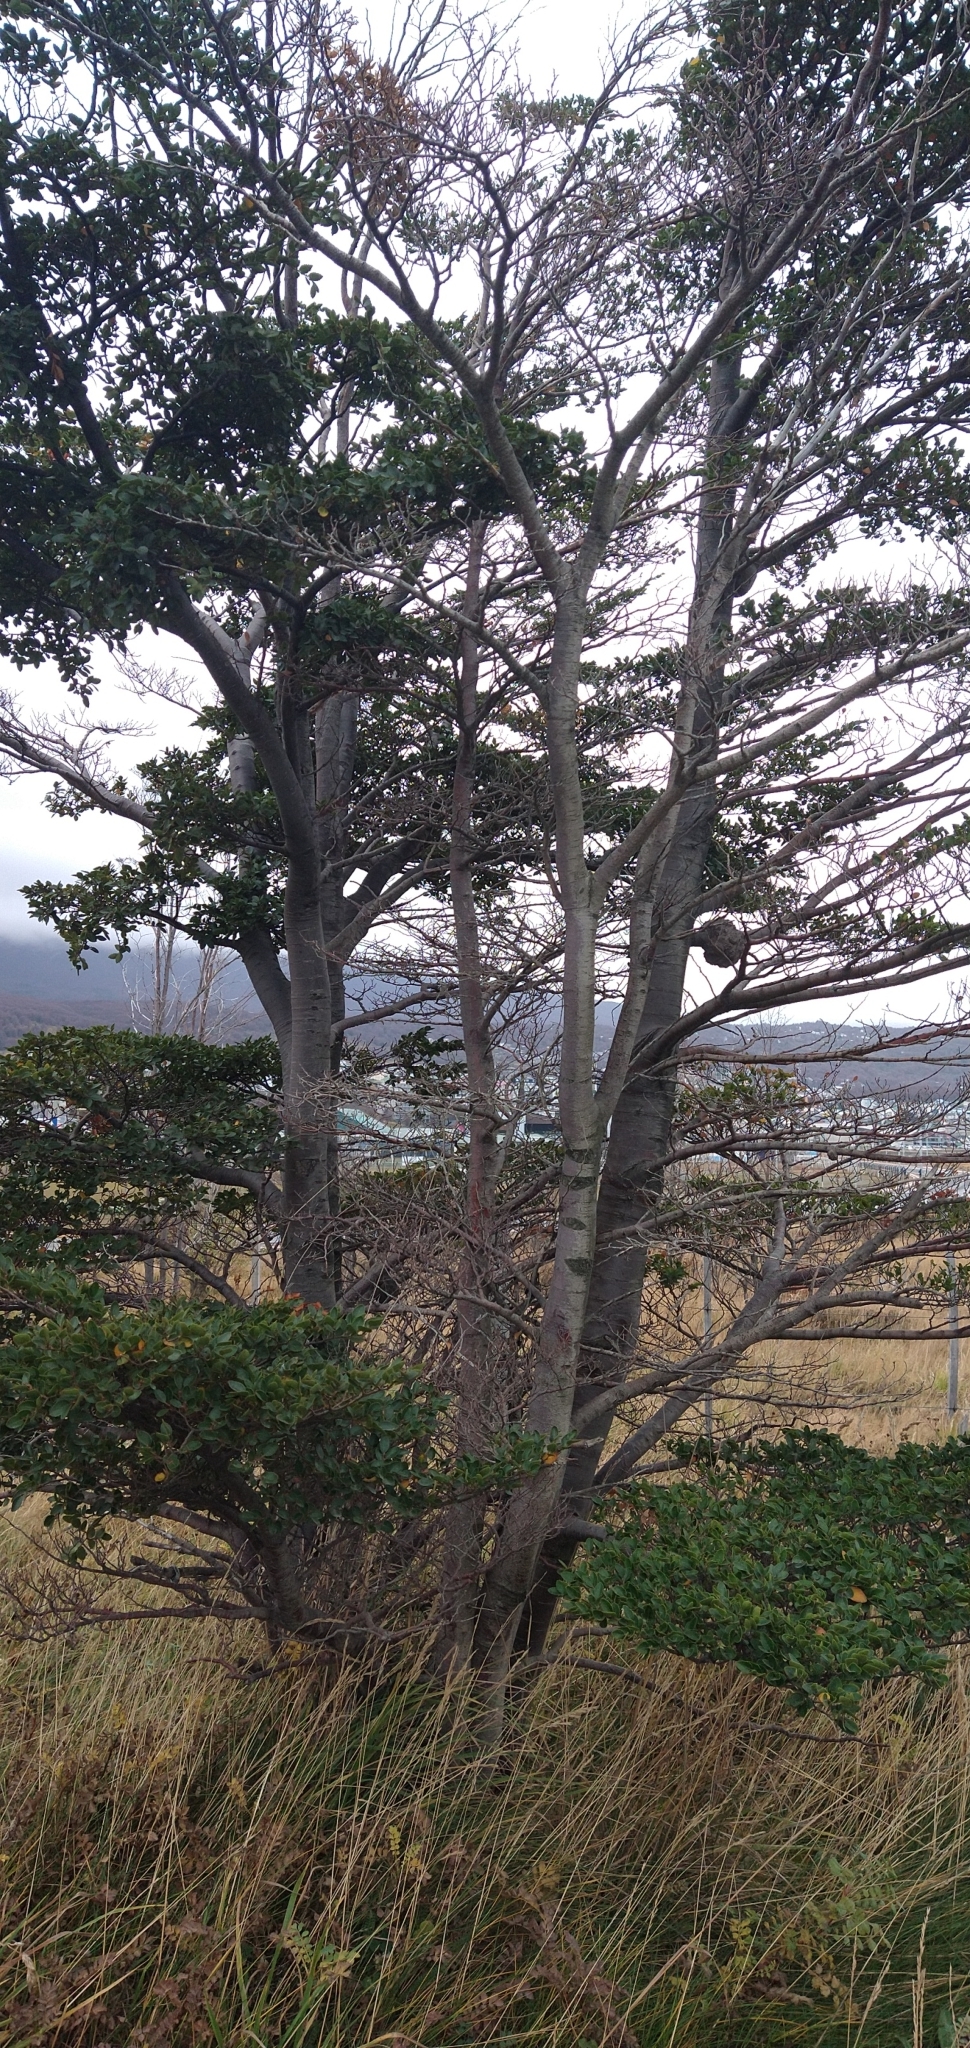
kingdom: Plantae
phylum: Tracheophyta
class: Magnoliopsida
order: Fagales
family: Nothofagaceae
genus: Nothofagus
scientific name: Nothofagus betuloides
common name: Magellan's beech
